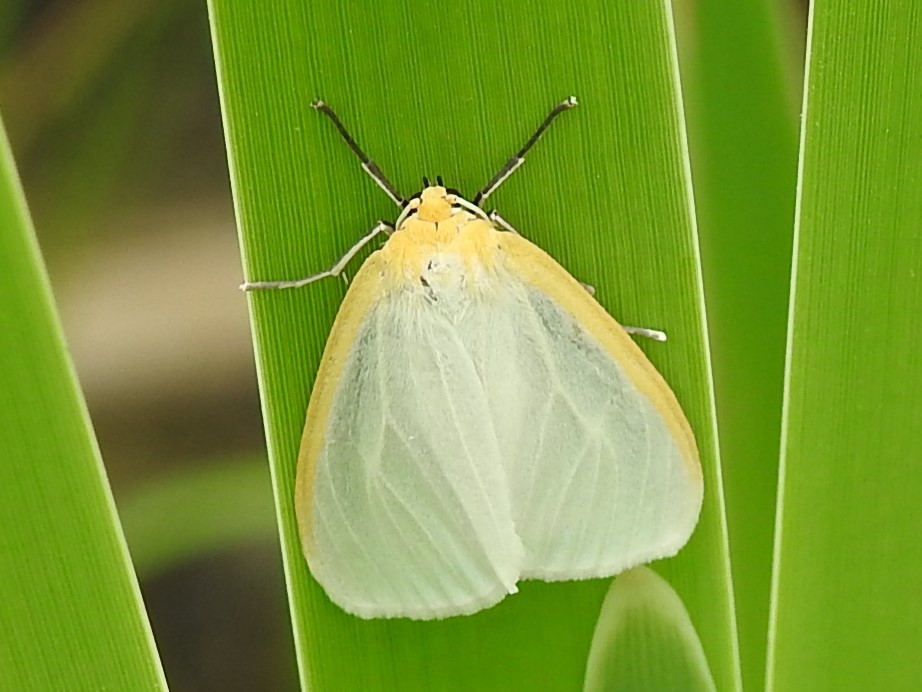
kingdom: Animalia
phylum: Arthropoda
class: Insecta
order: Lepidoptera
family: Erebidae
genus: Cycnia
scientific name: Cycnia tenera
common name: Delicate cycnia moth
